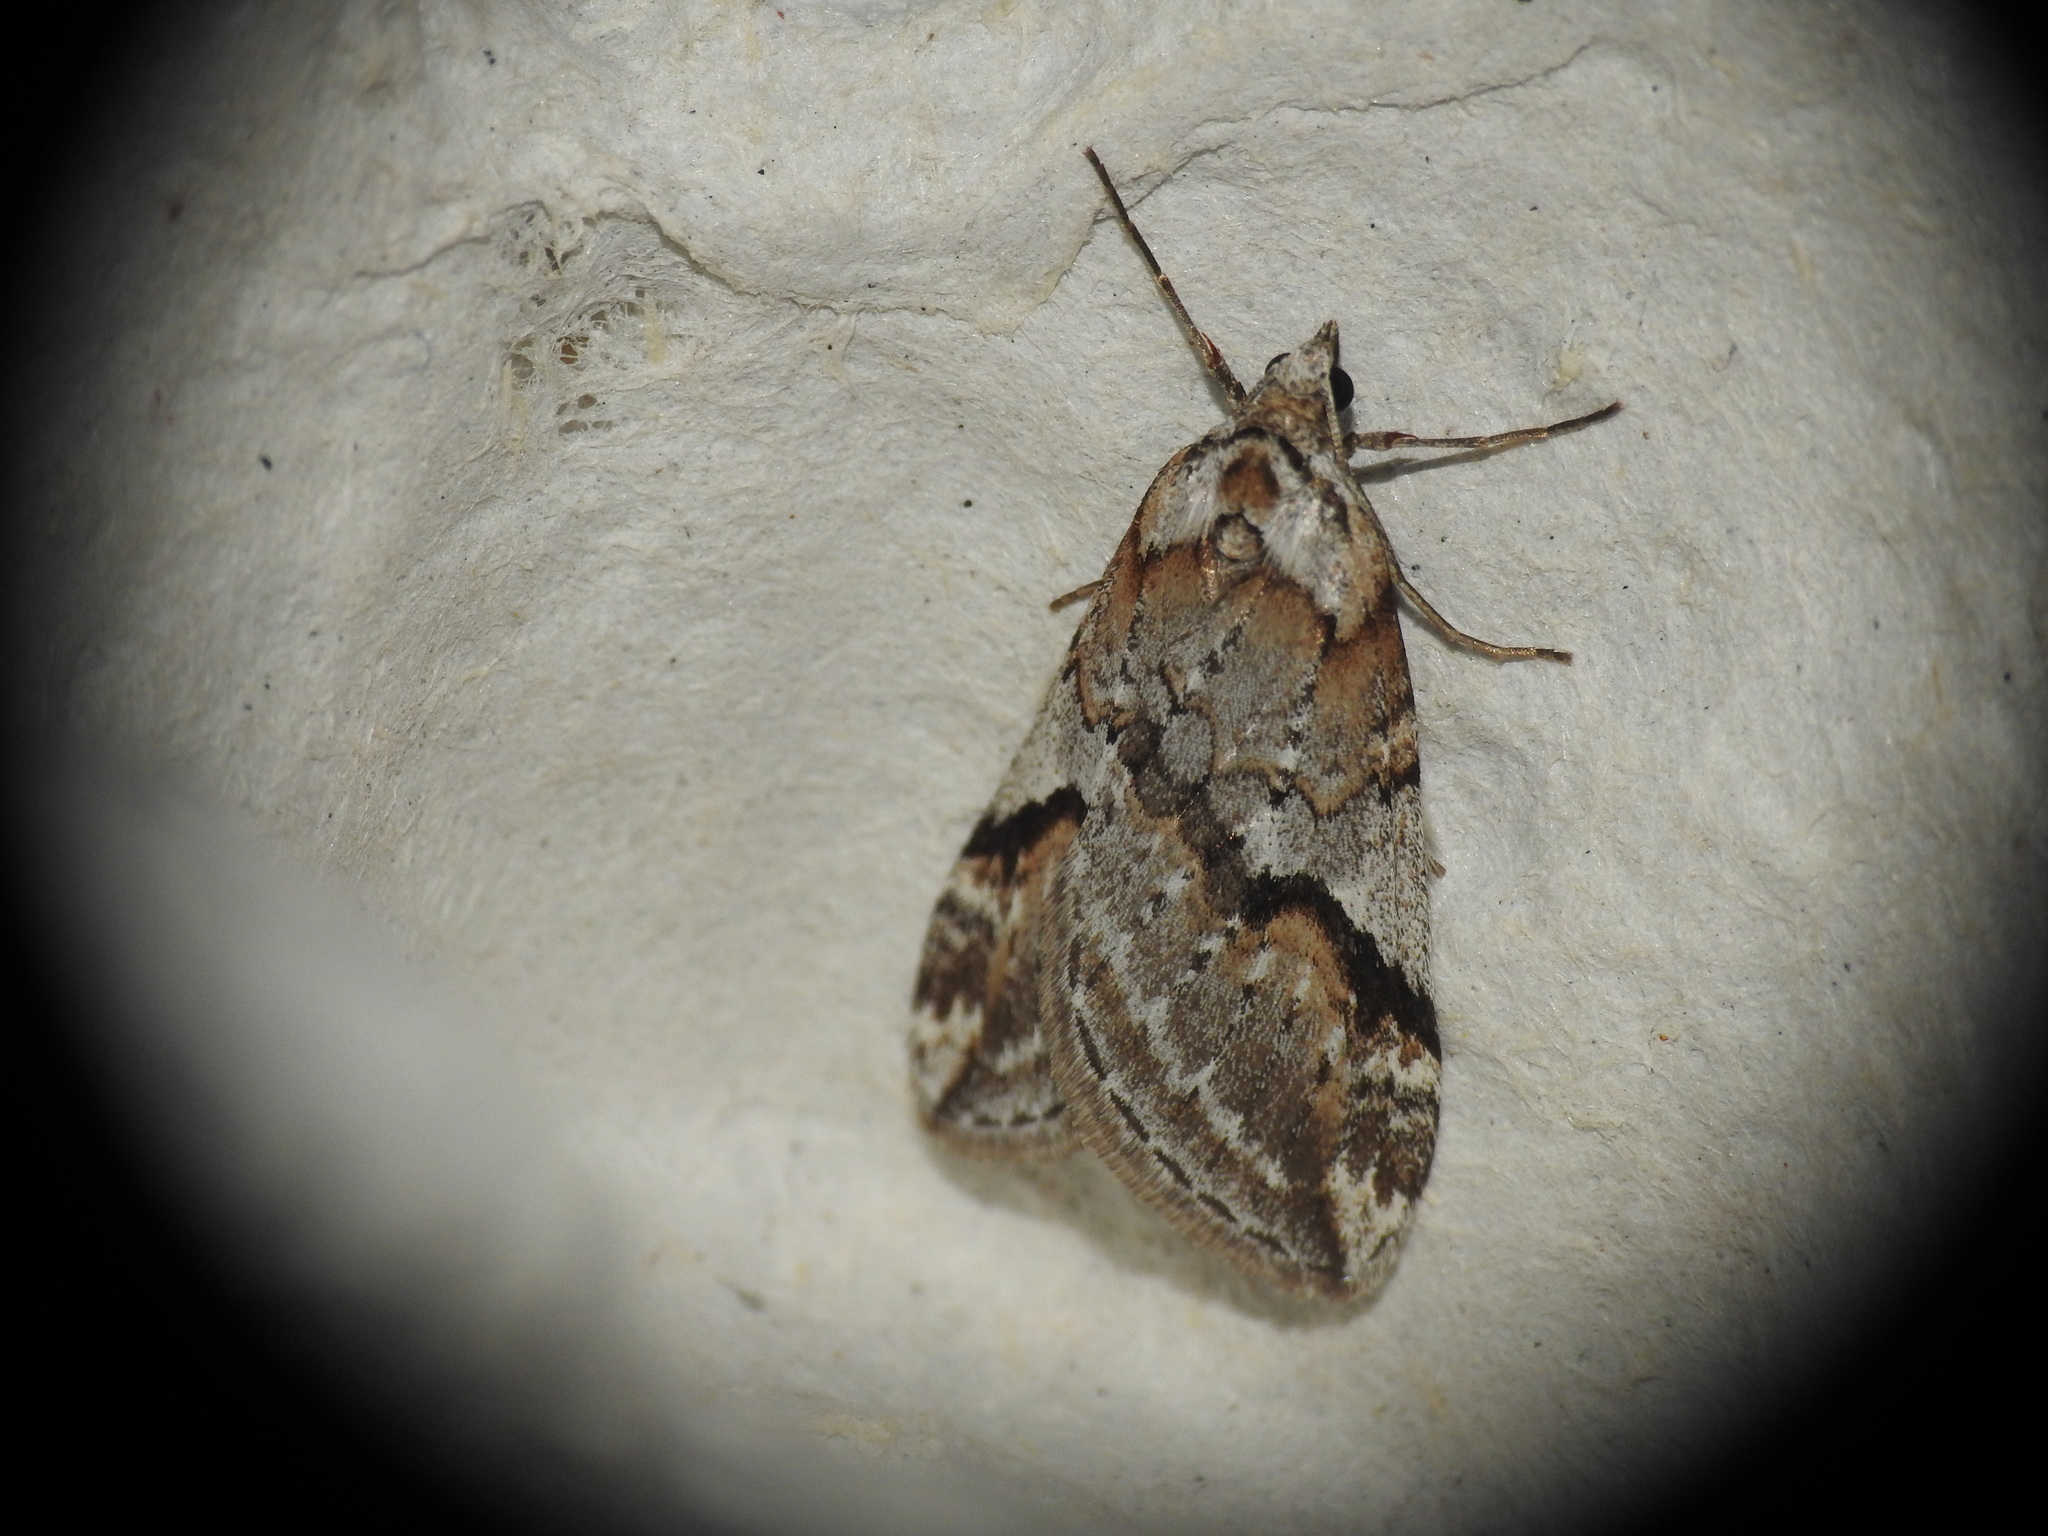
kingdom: Animalia
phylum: Arthropoda
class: Insecta
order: Lepidoptera
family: Geometridae
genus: Chesias
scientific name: Chesias rufata
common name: Broom-tip
